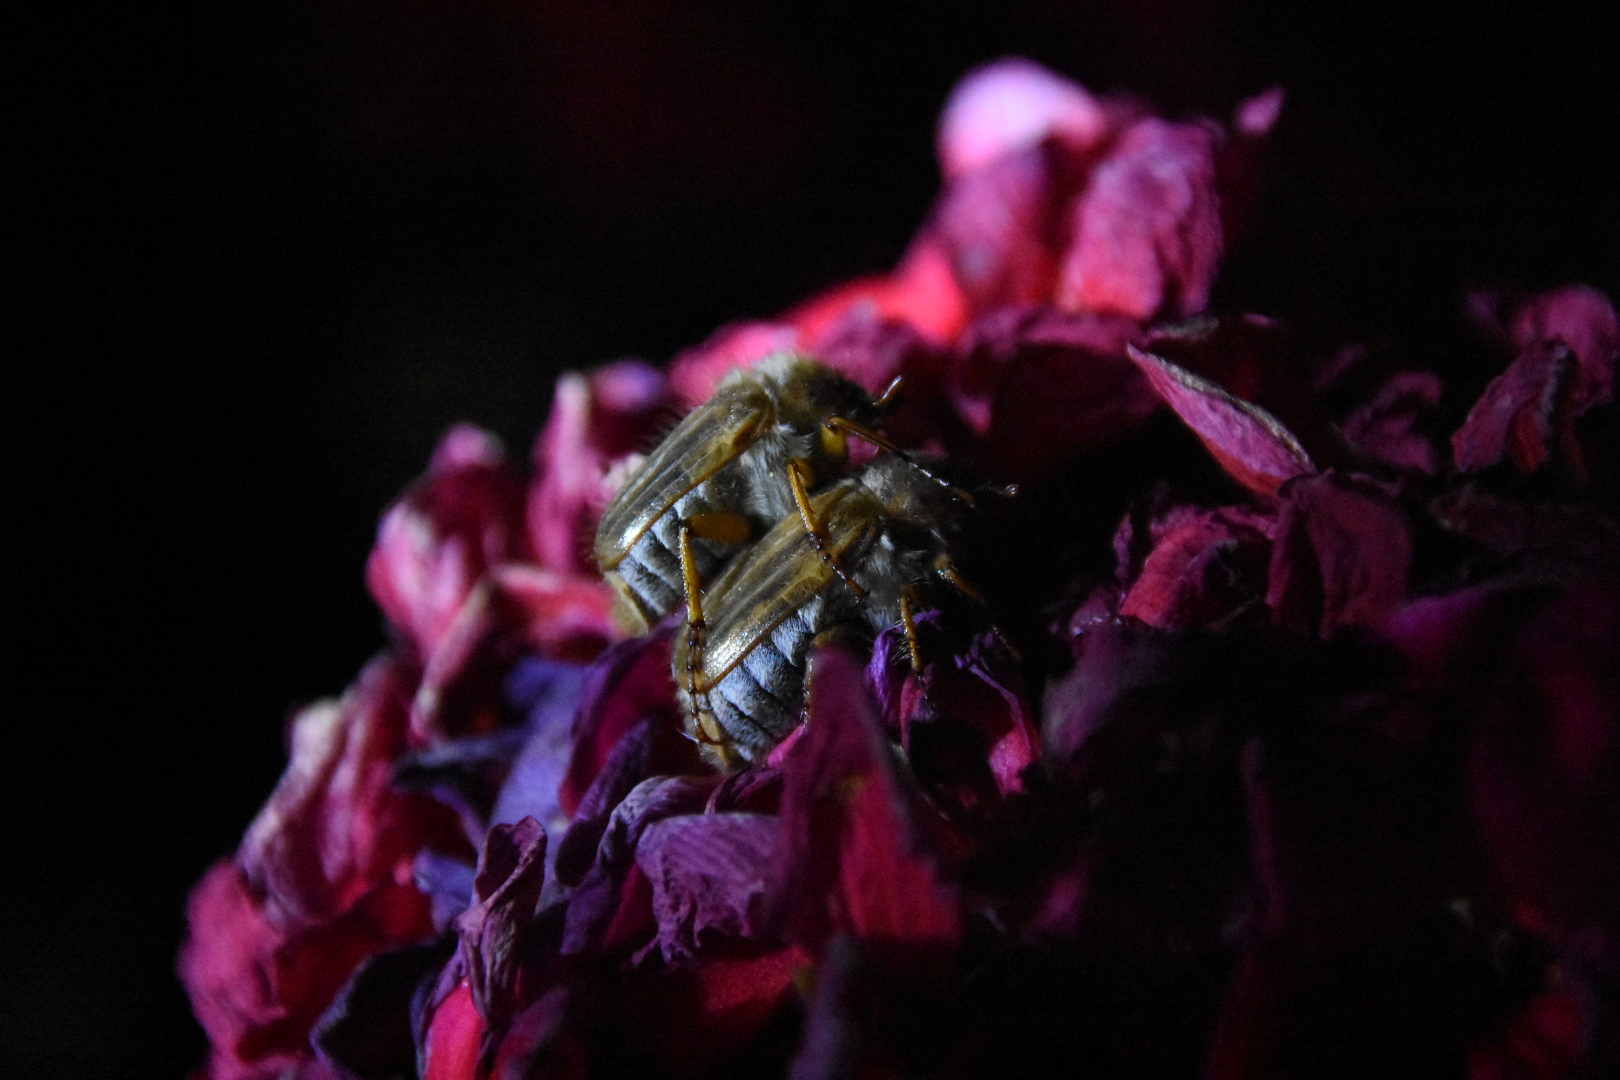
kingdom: Animalia
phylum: Arthropoda
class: Insecta
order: Coleoptera
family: Scarabaeidae
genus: Amphimallon
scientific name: Amphimallon solstitiale
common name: Summer chafer
